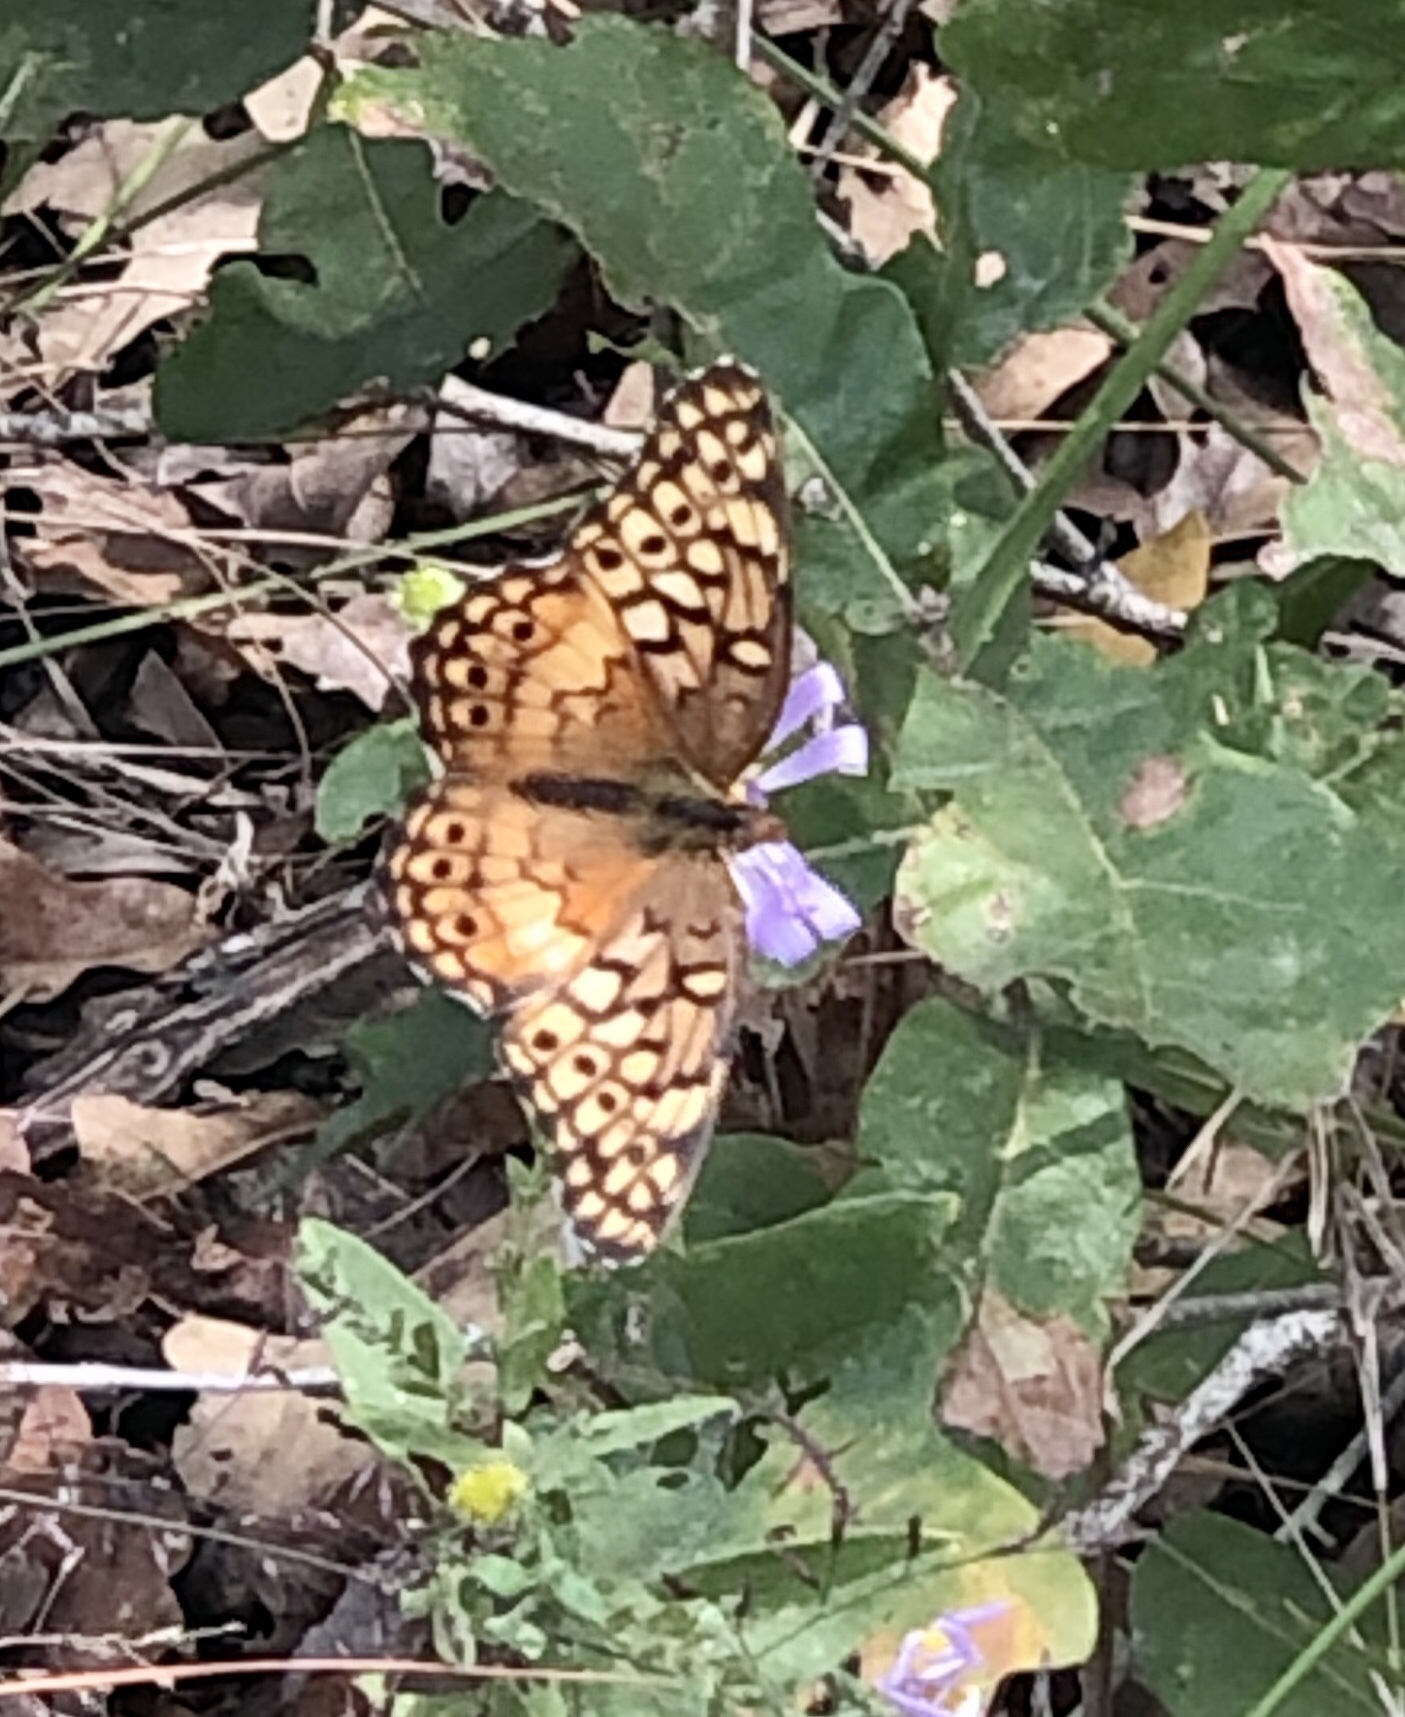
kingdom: Animalia
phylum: Arthropoda
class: Insecta
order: Lepidoptera
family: Nymphalidae
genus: Euptoieta
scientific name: Euptoieta claudia
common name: Variegated fritillary
